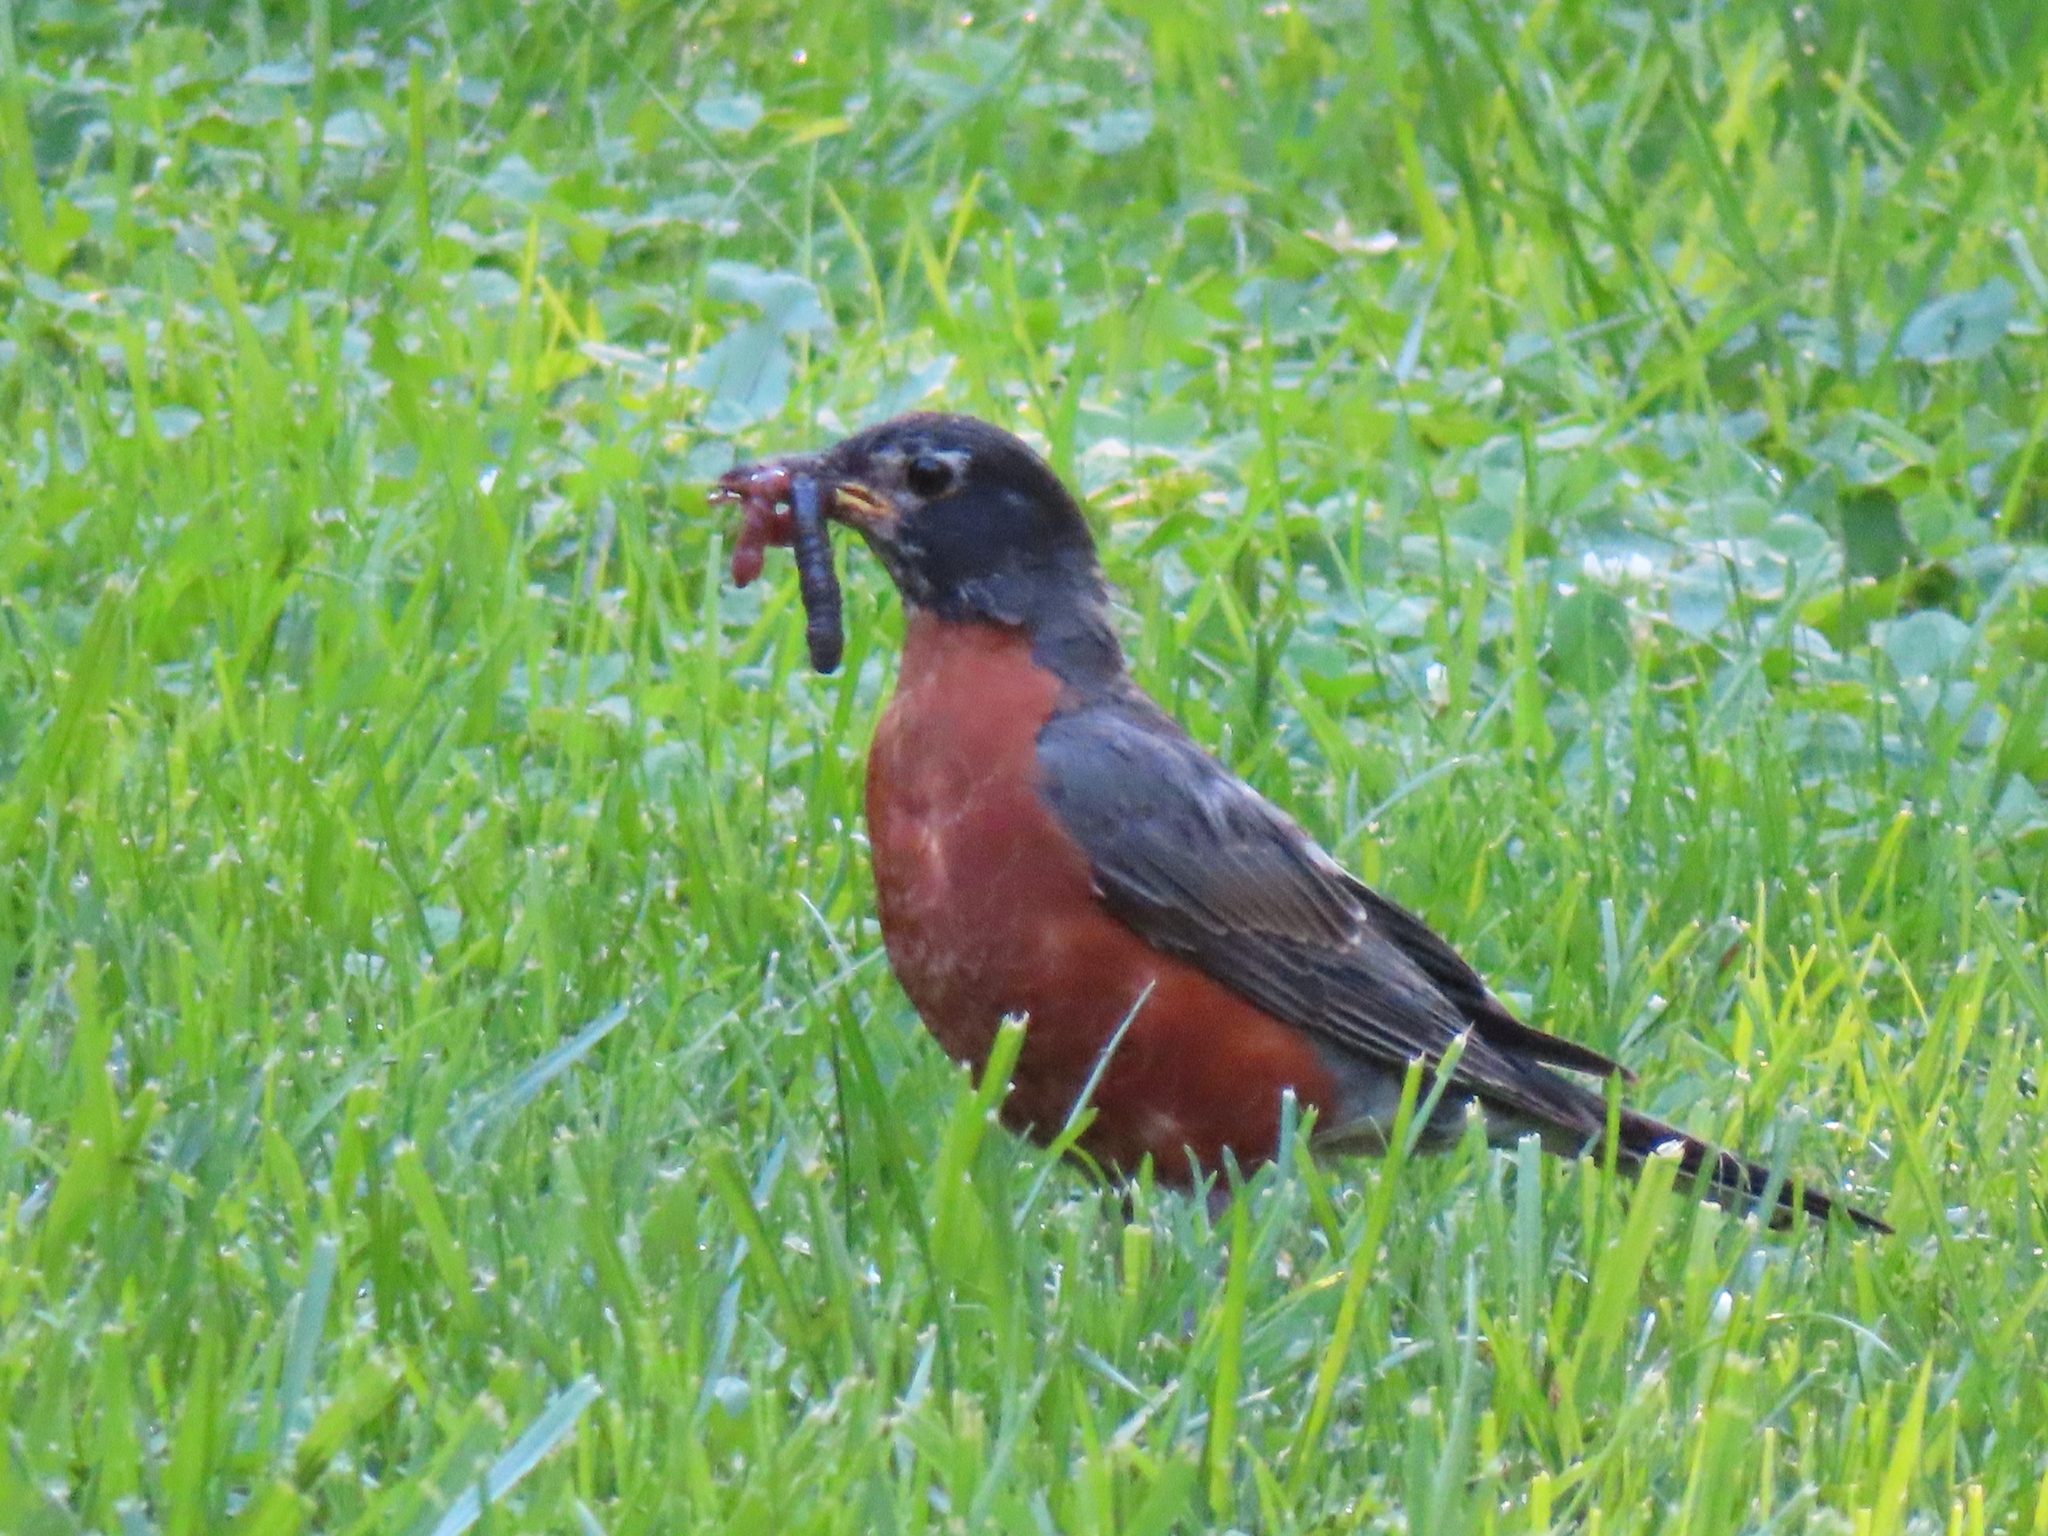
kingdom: Animalia
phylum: Chordata
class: Aves
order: Passeriformes
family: Turdidae
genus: Turdus
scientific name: Turdus migratorius
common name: American robin
